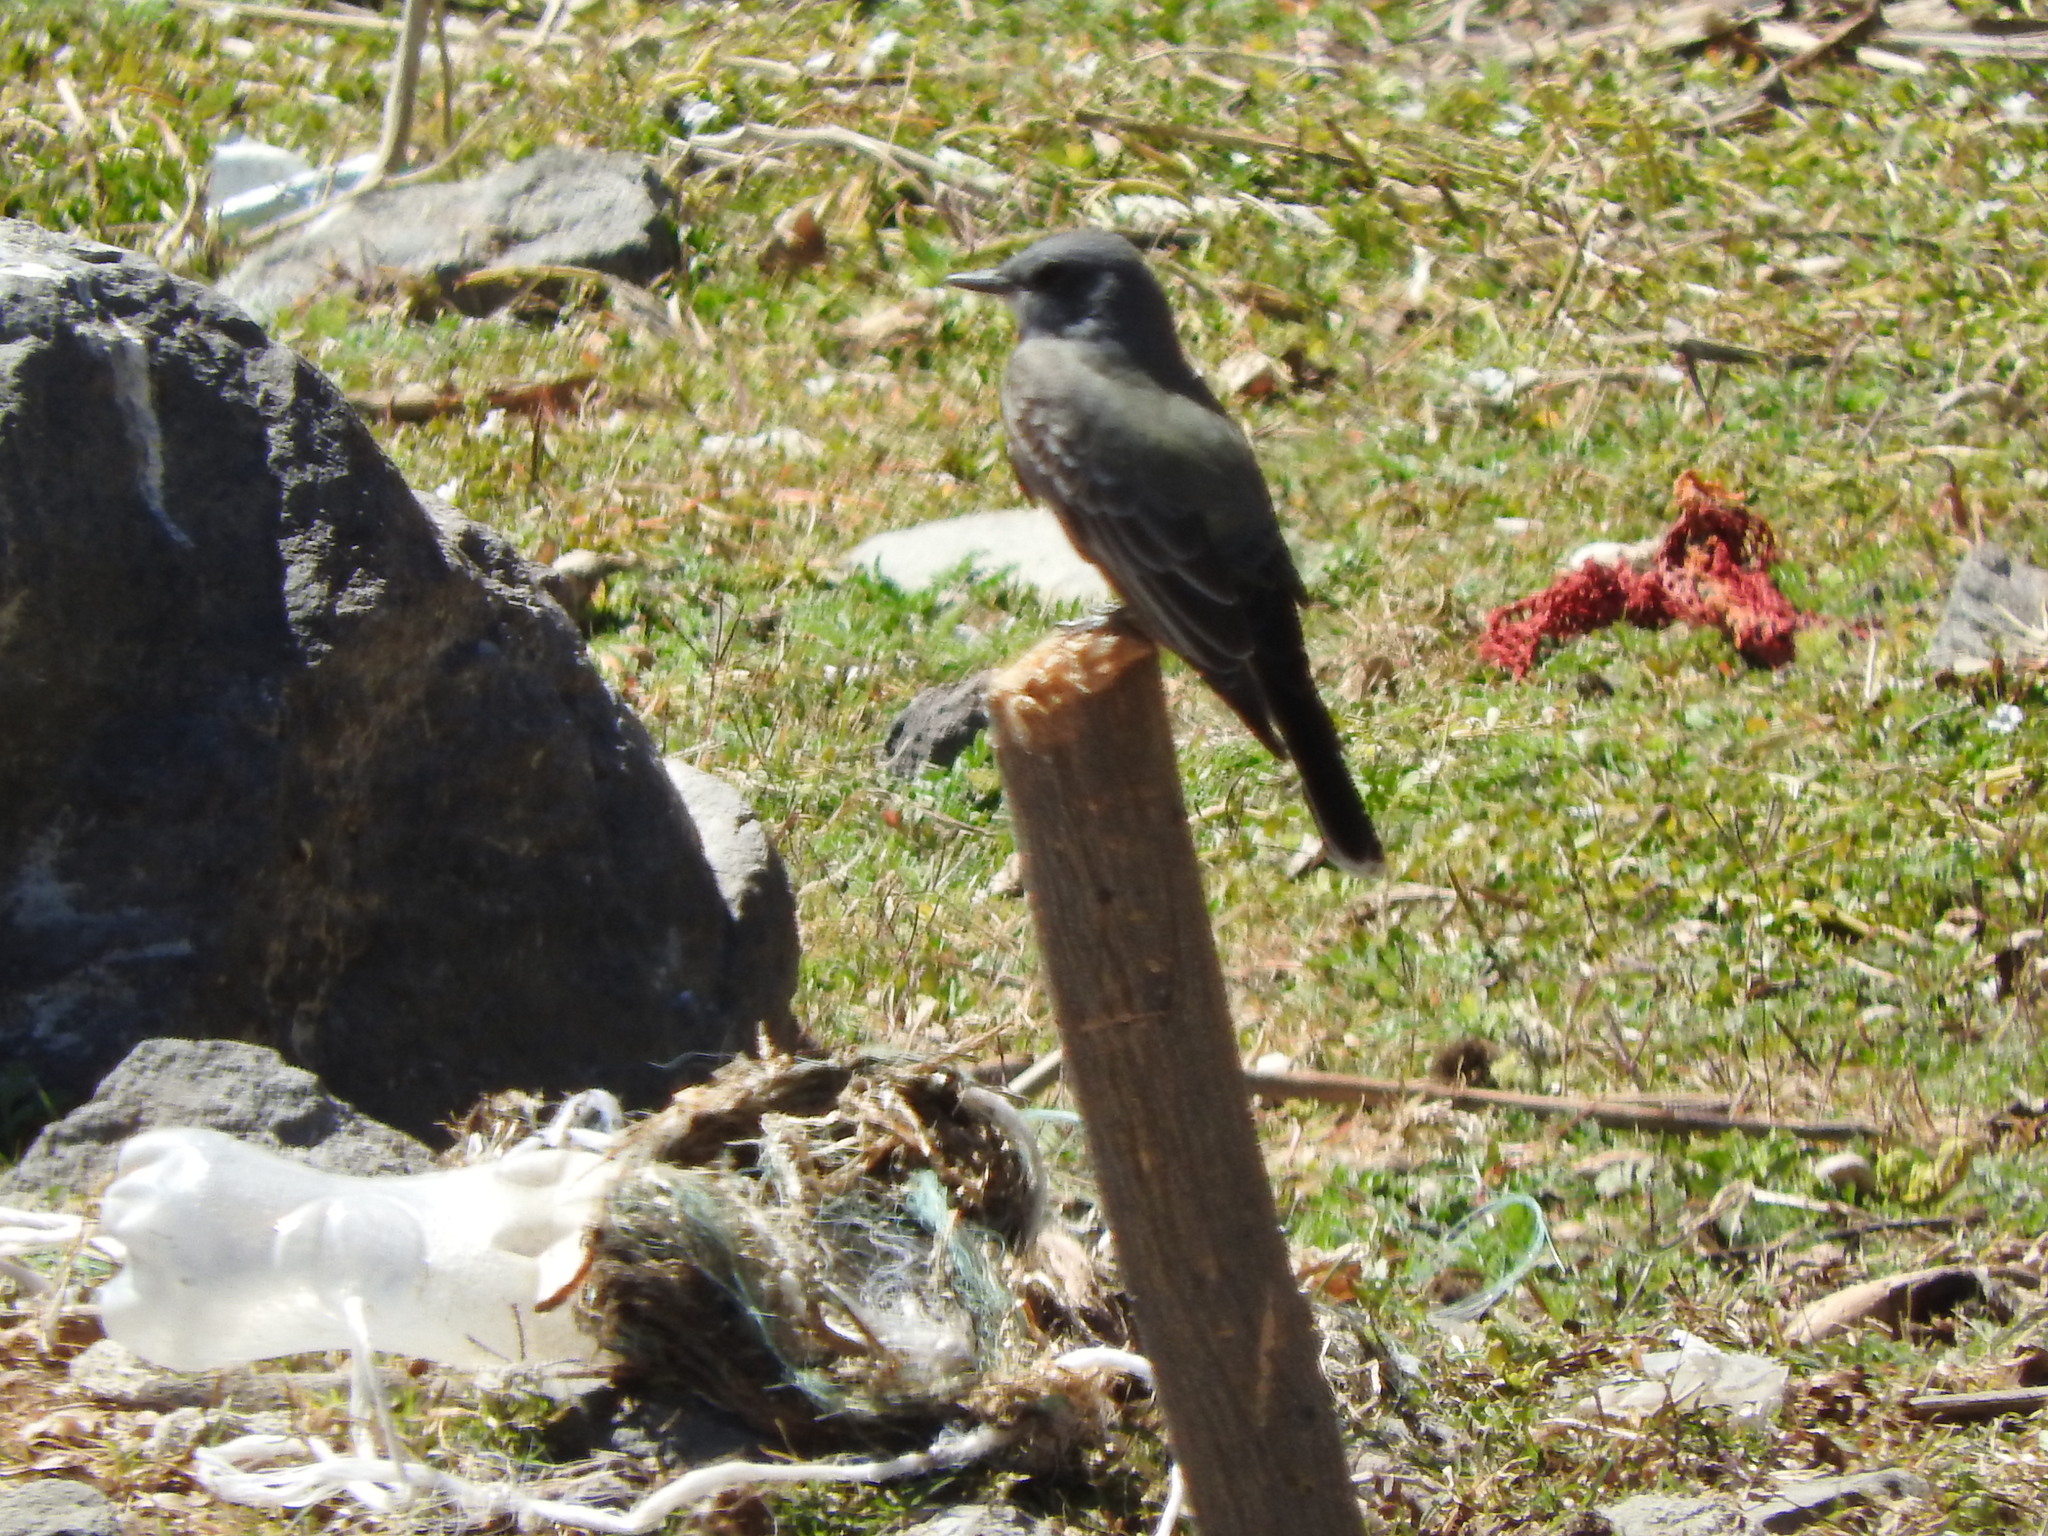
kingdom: Animalia
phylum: Chordata
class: Aves
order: Passeriformes
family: Tyrannidae
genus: Sayornis
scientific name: Sayornis saya
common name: Say's phoebe
